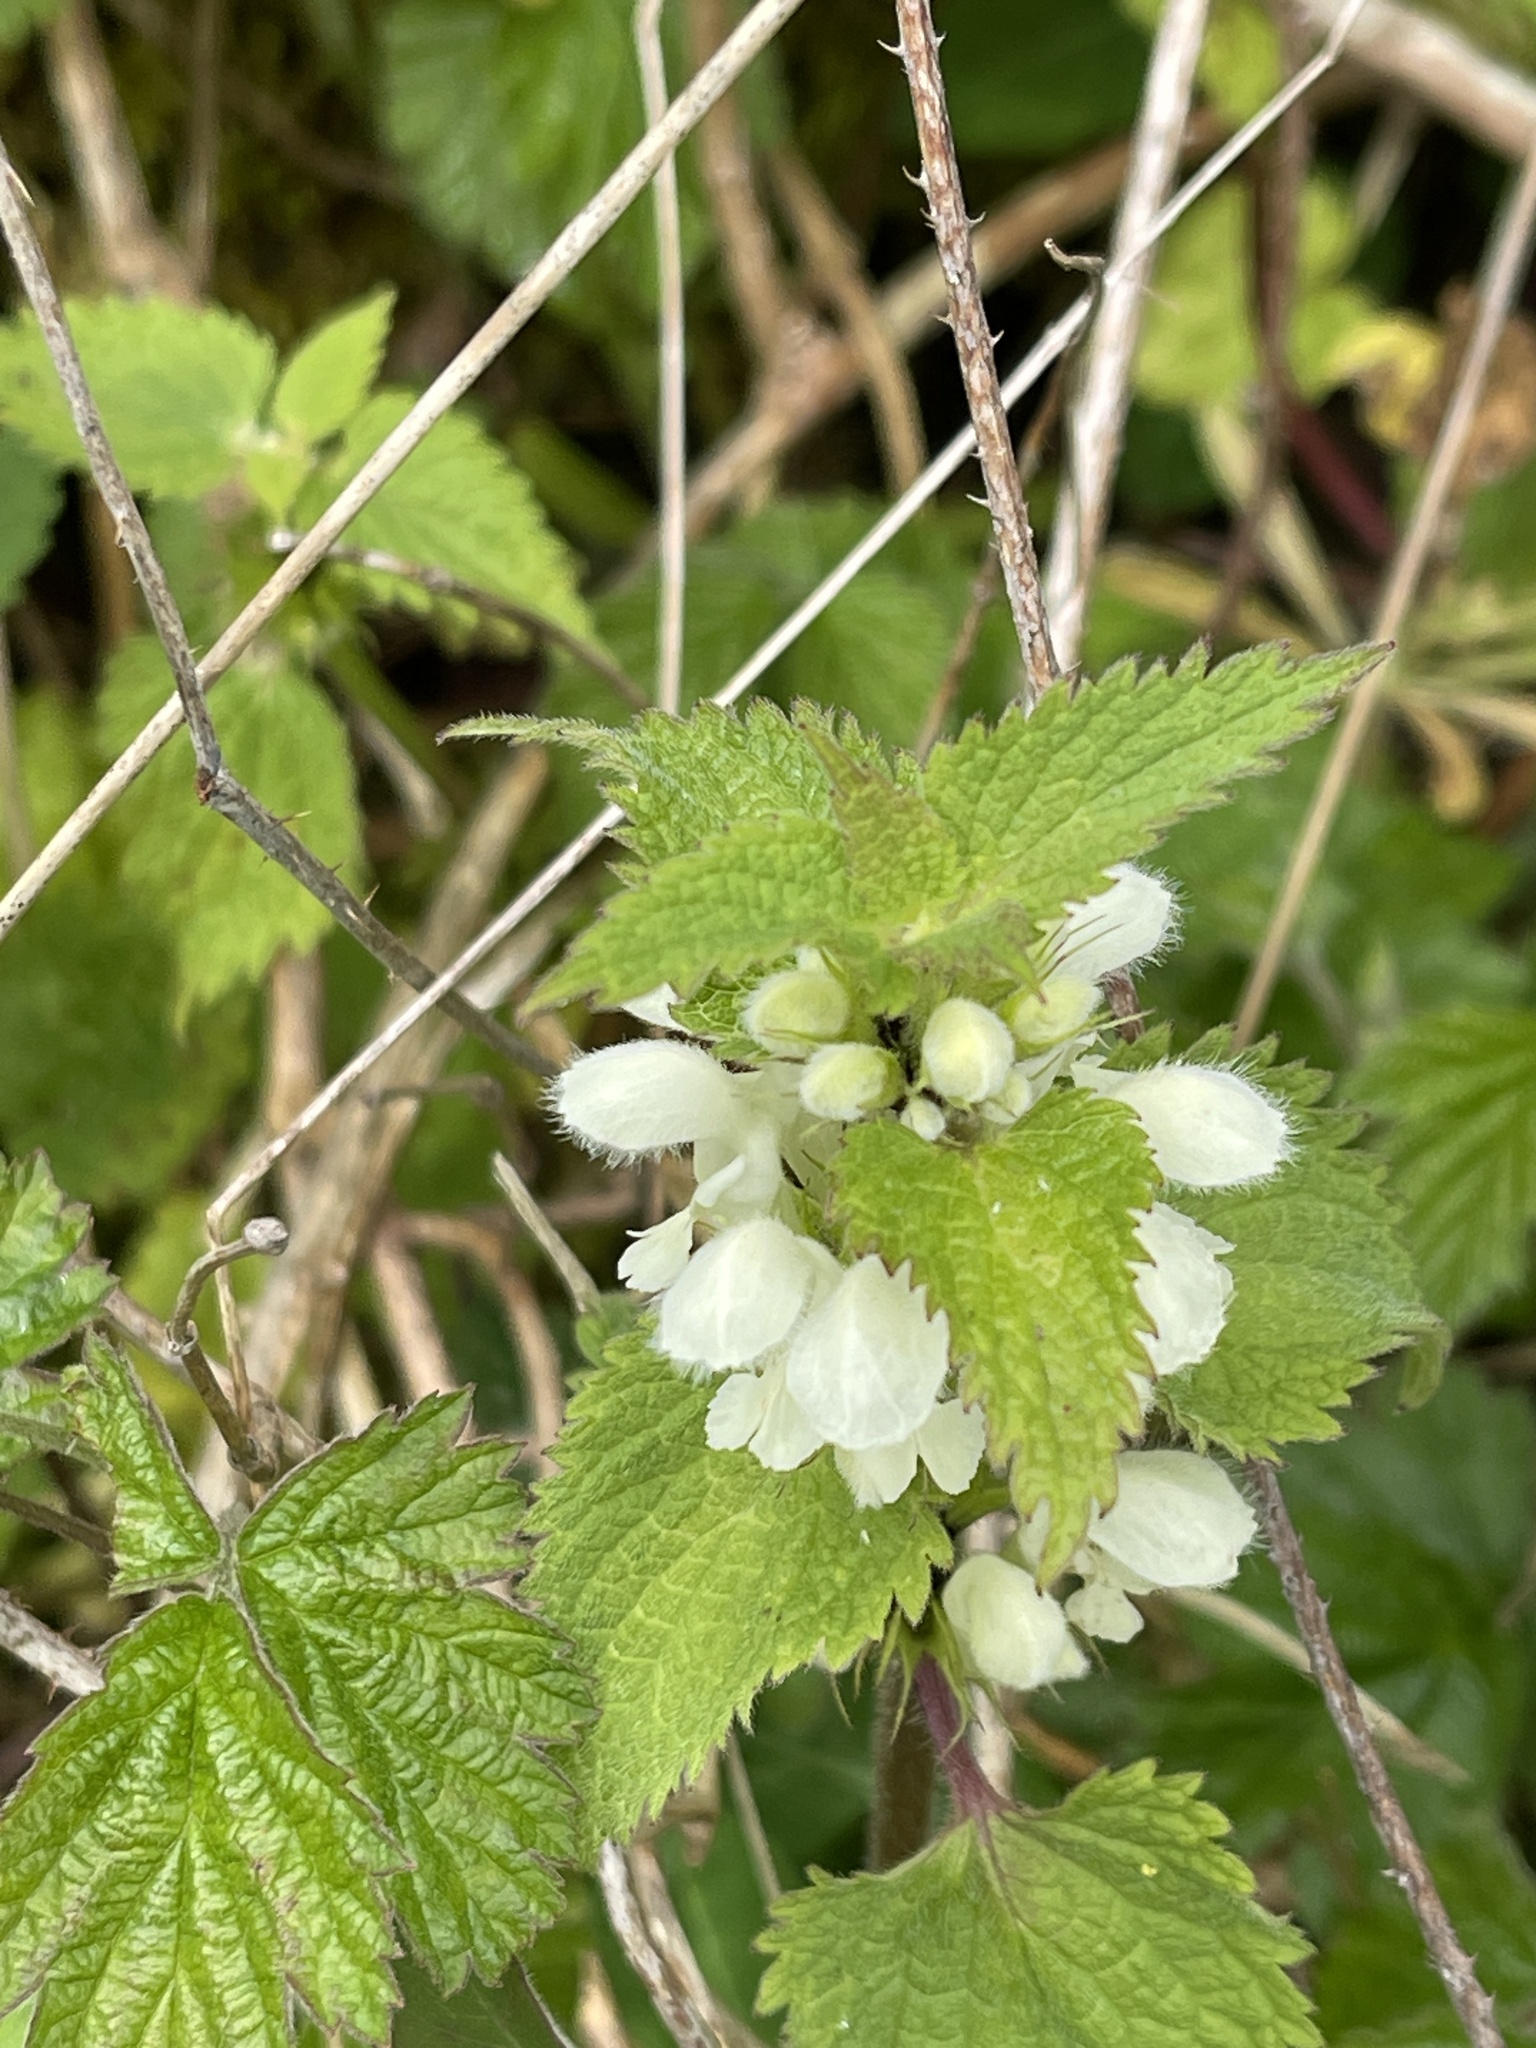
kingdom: Plantae
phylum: Tracheophyta
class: Magnoliopsida
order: Lamiales
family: Lamiaceae
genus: Lamium
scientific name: Lamium album
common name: White dead-nettle
